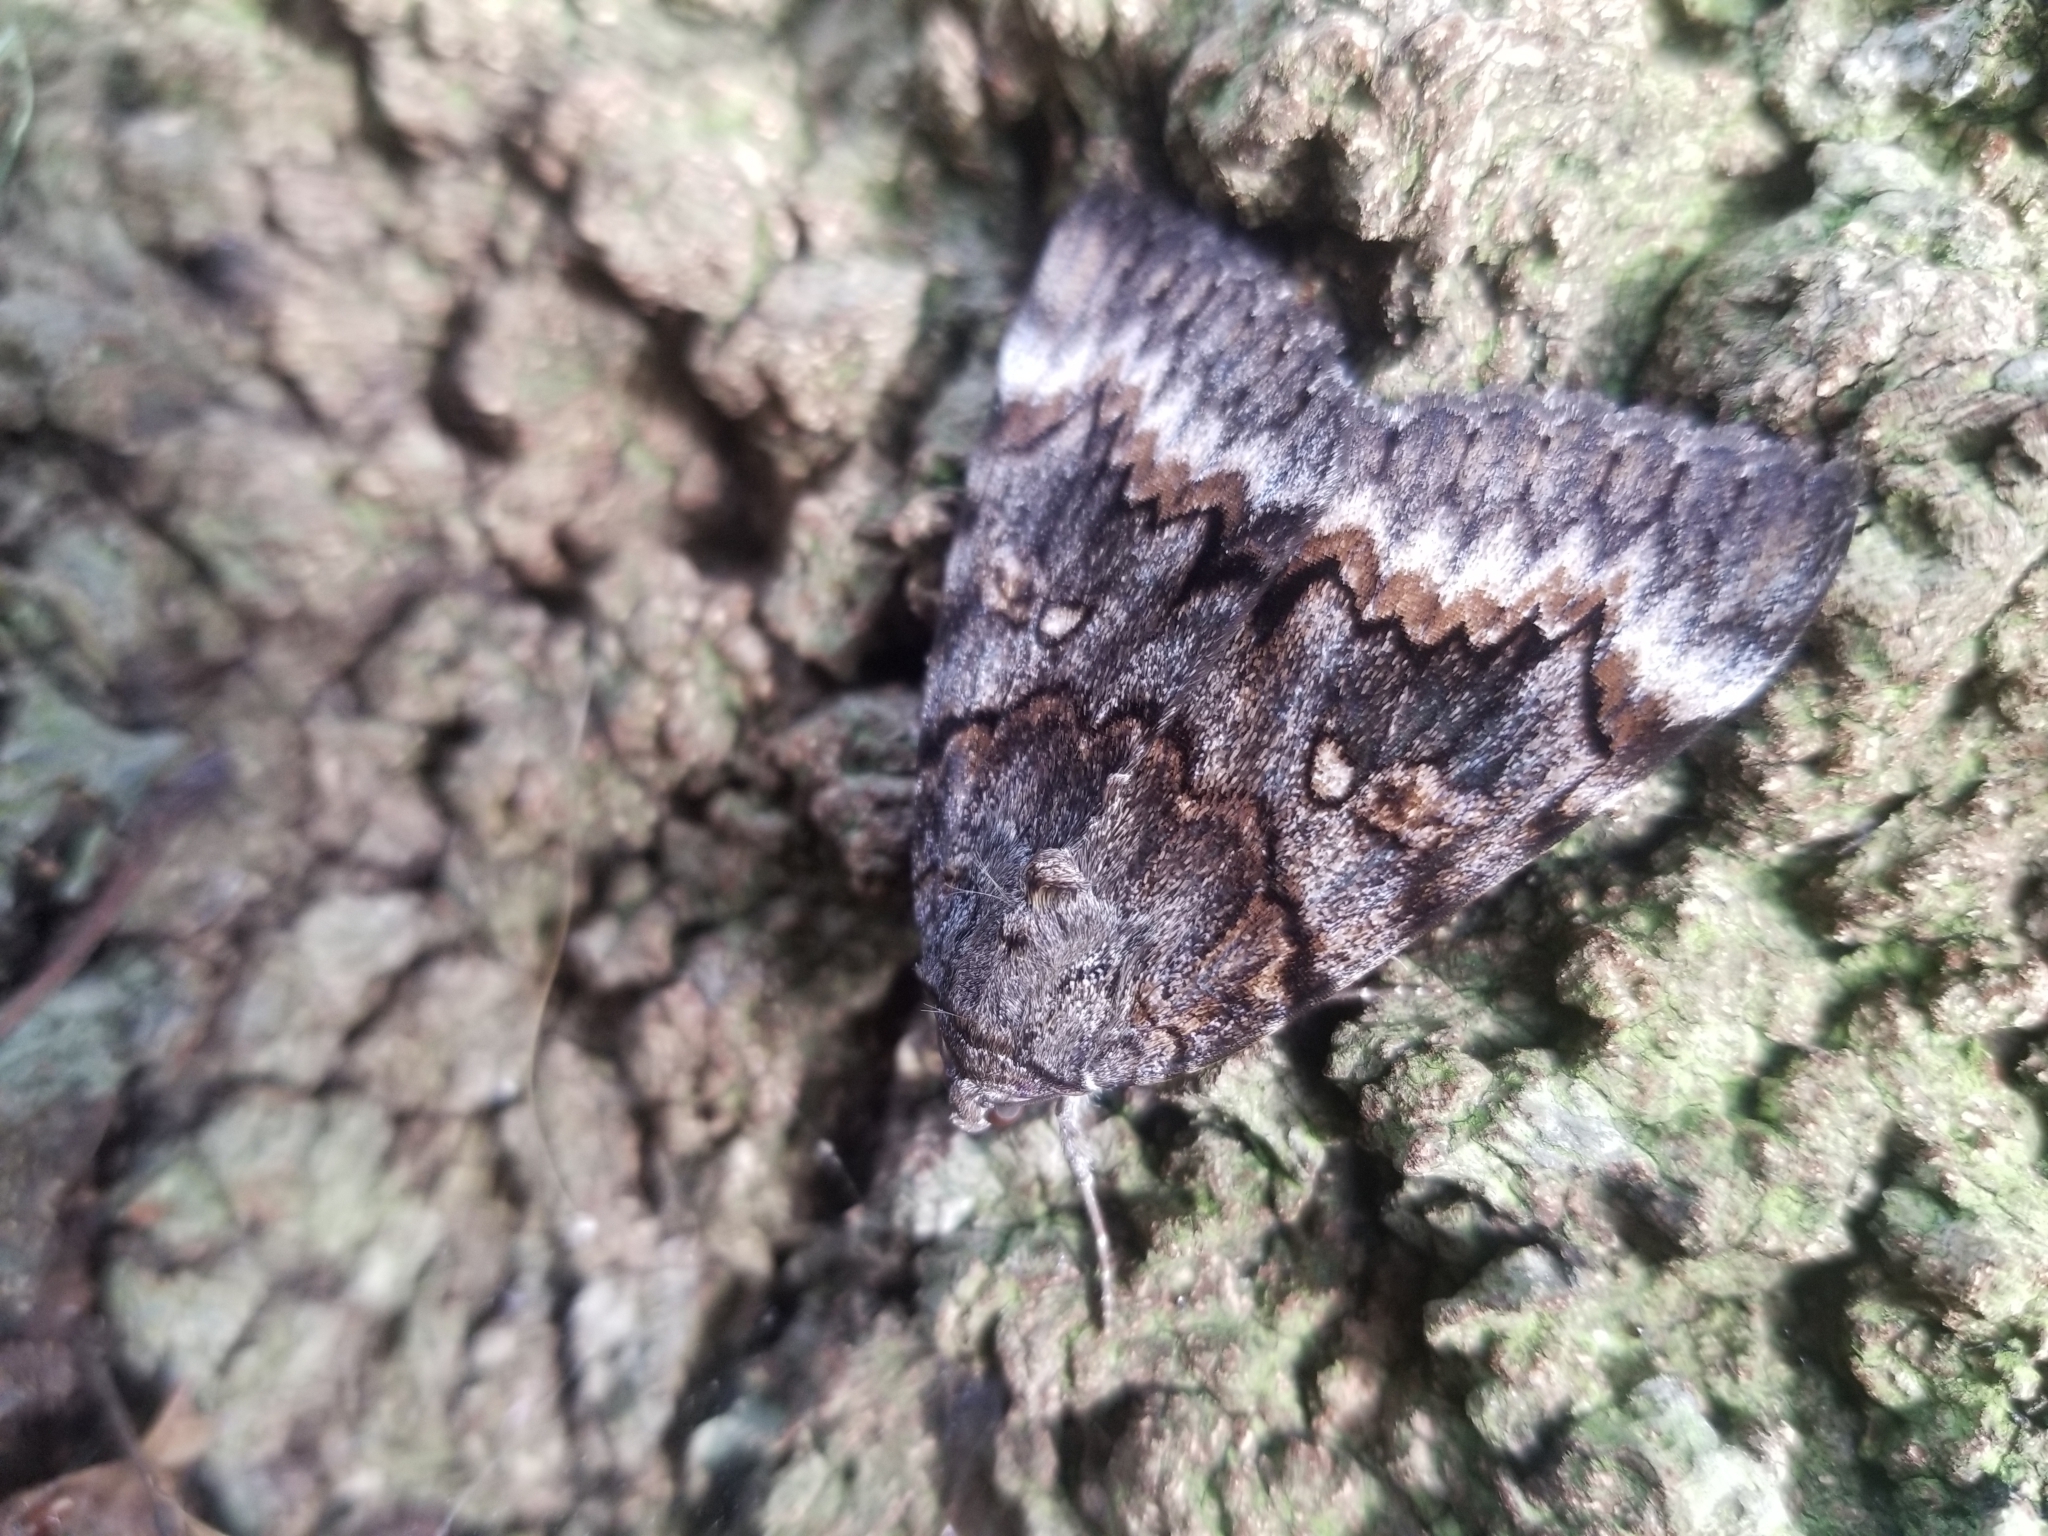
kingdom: Animalia
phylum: Arthropoda
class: Insecta
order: Lepidoptera
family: Erebidae
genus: Catocala
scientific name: Catocala epione
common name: Epione underwing
